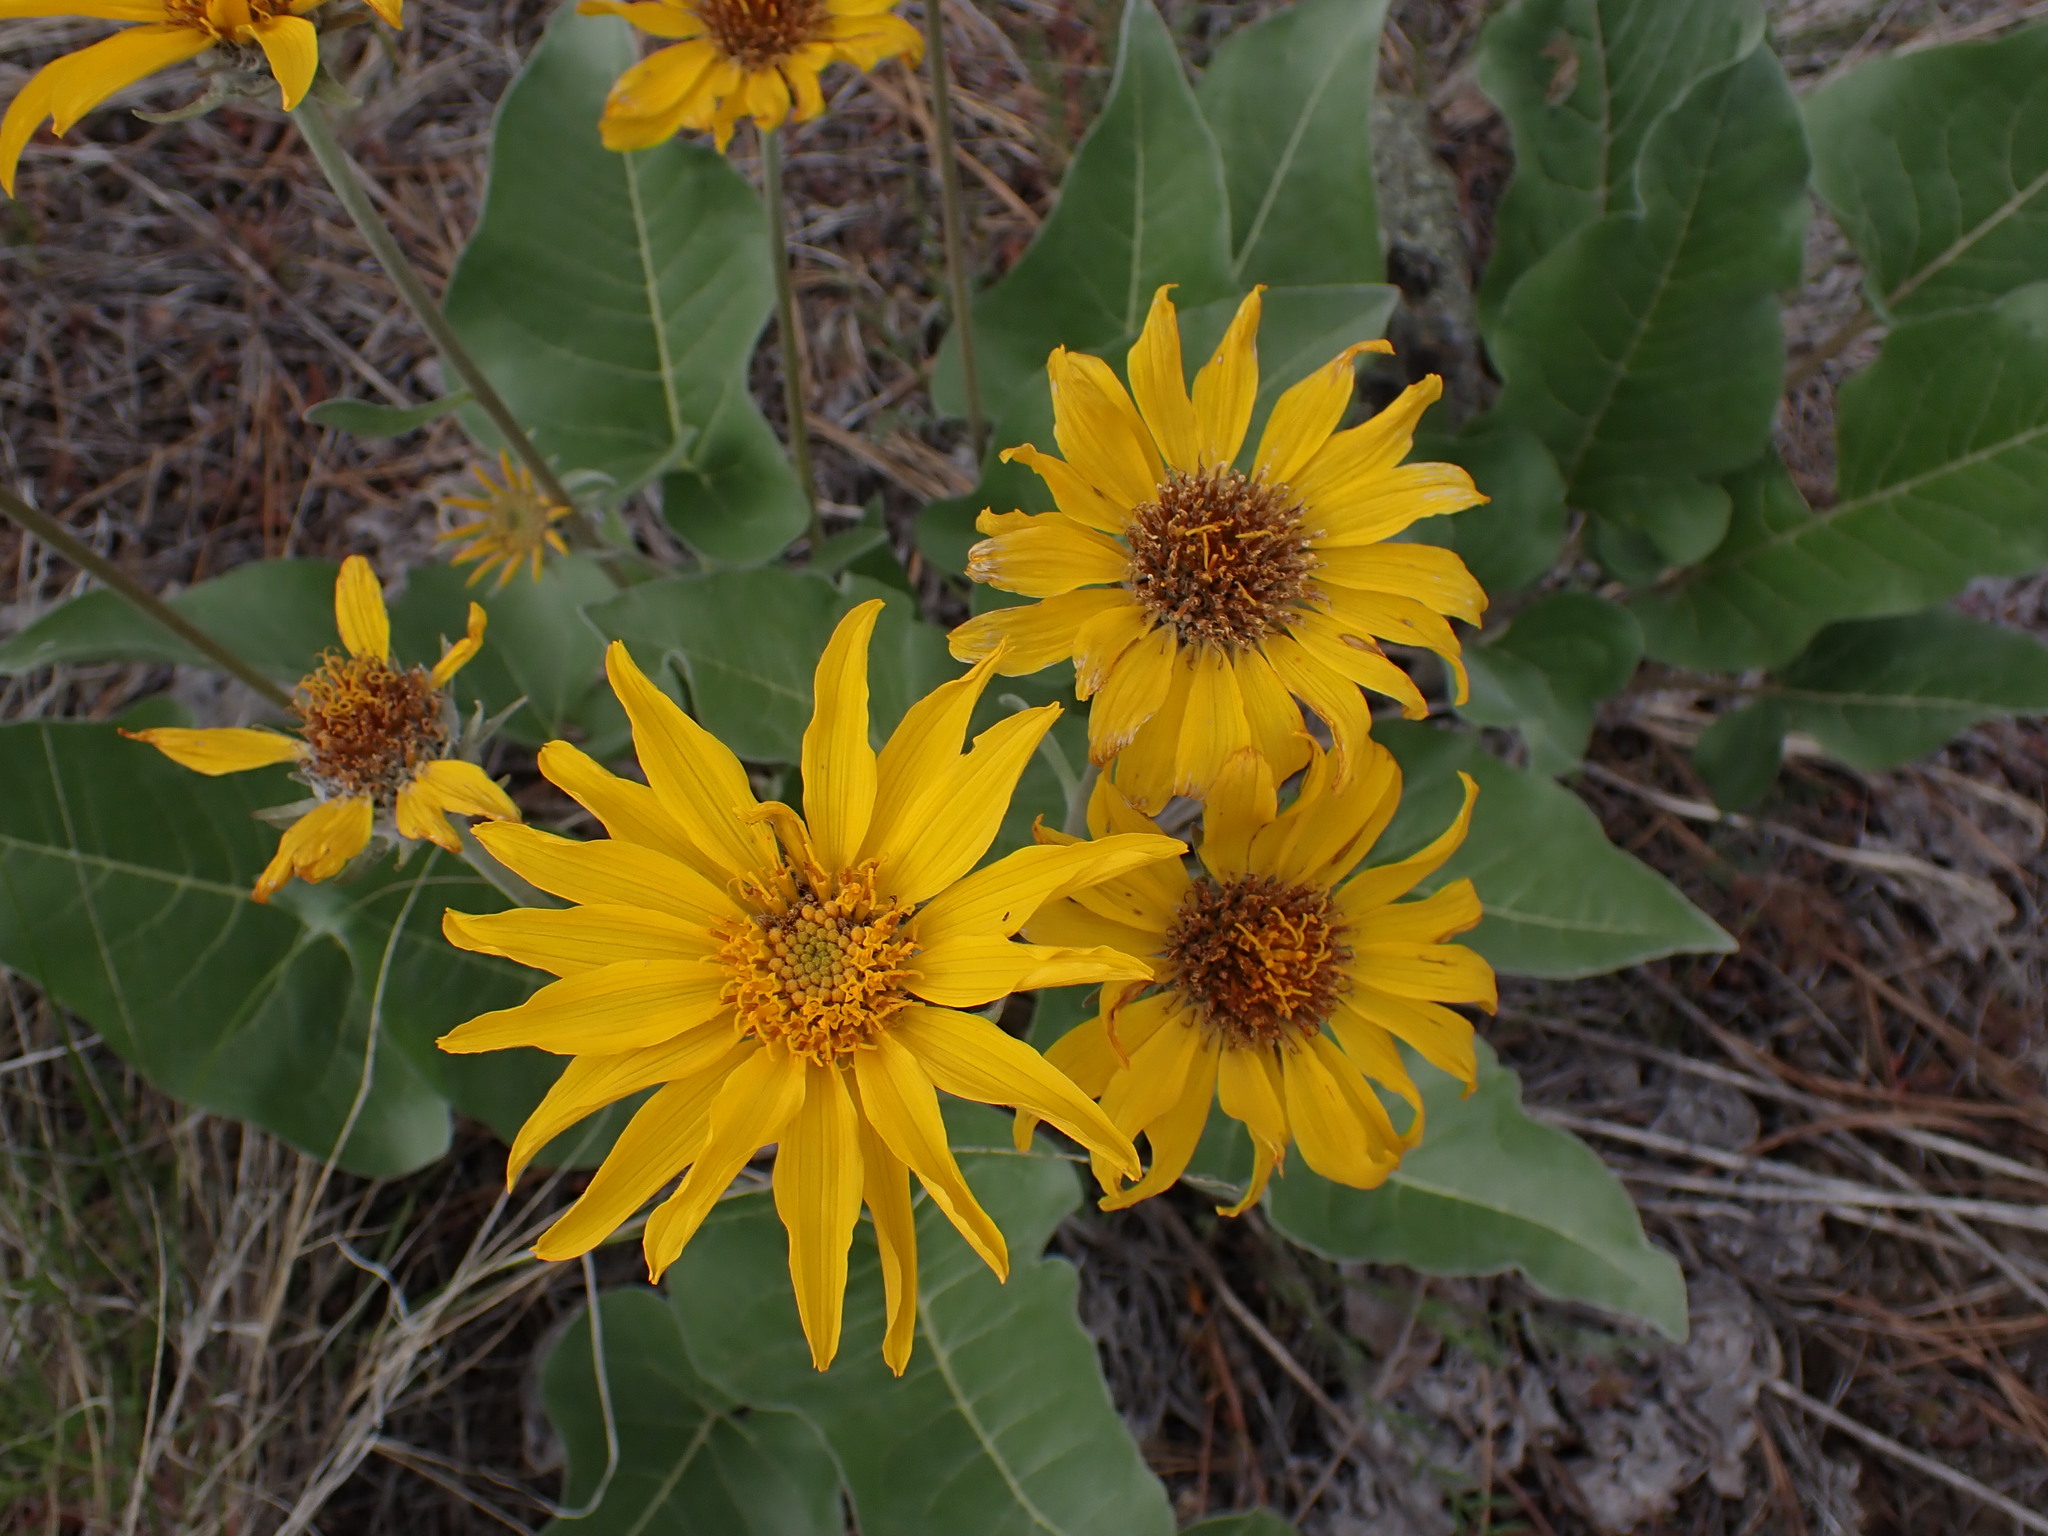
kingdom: Plantae
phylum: Tracheophyta
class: Magnoliopsida
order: Asterales
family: Asteraceae
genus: Wyethia
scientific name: Wyethia sagittata
